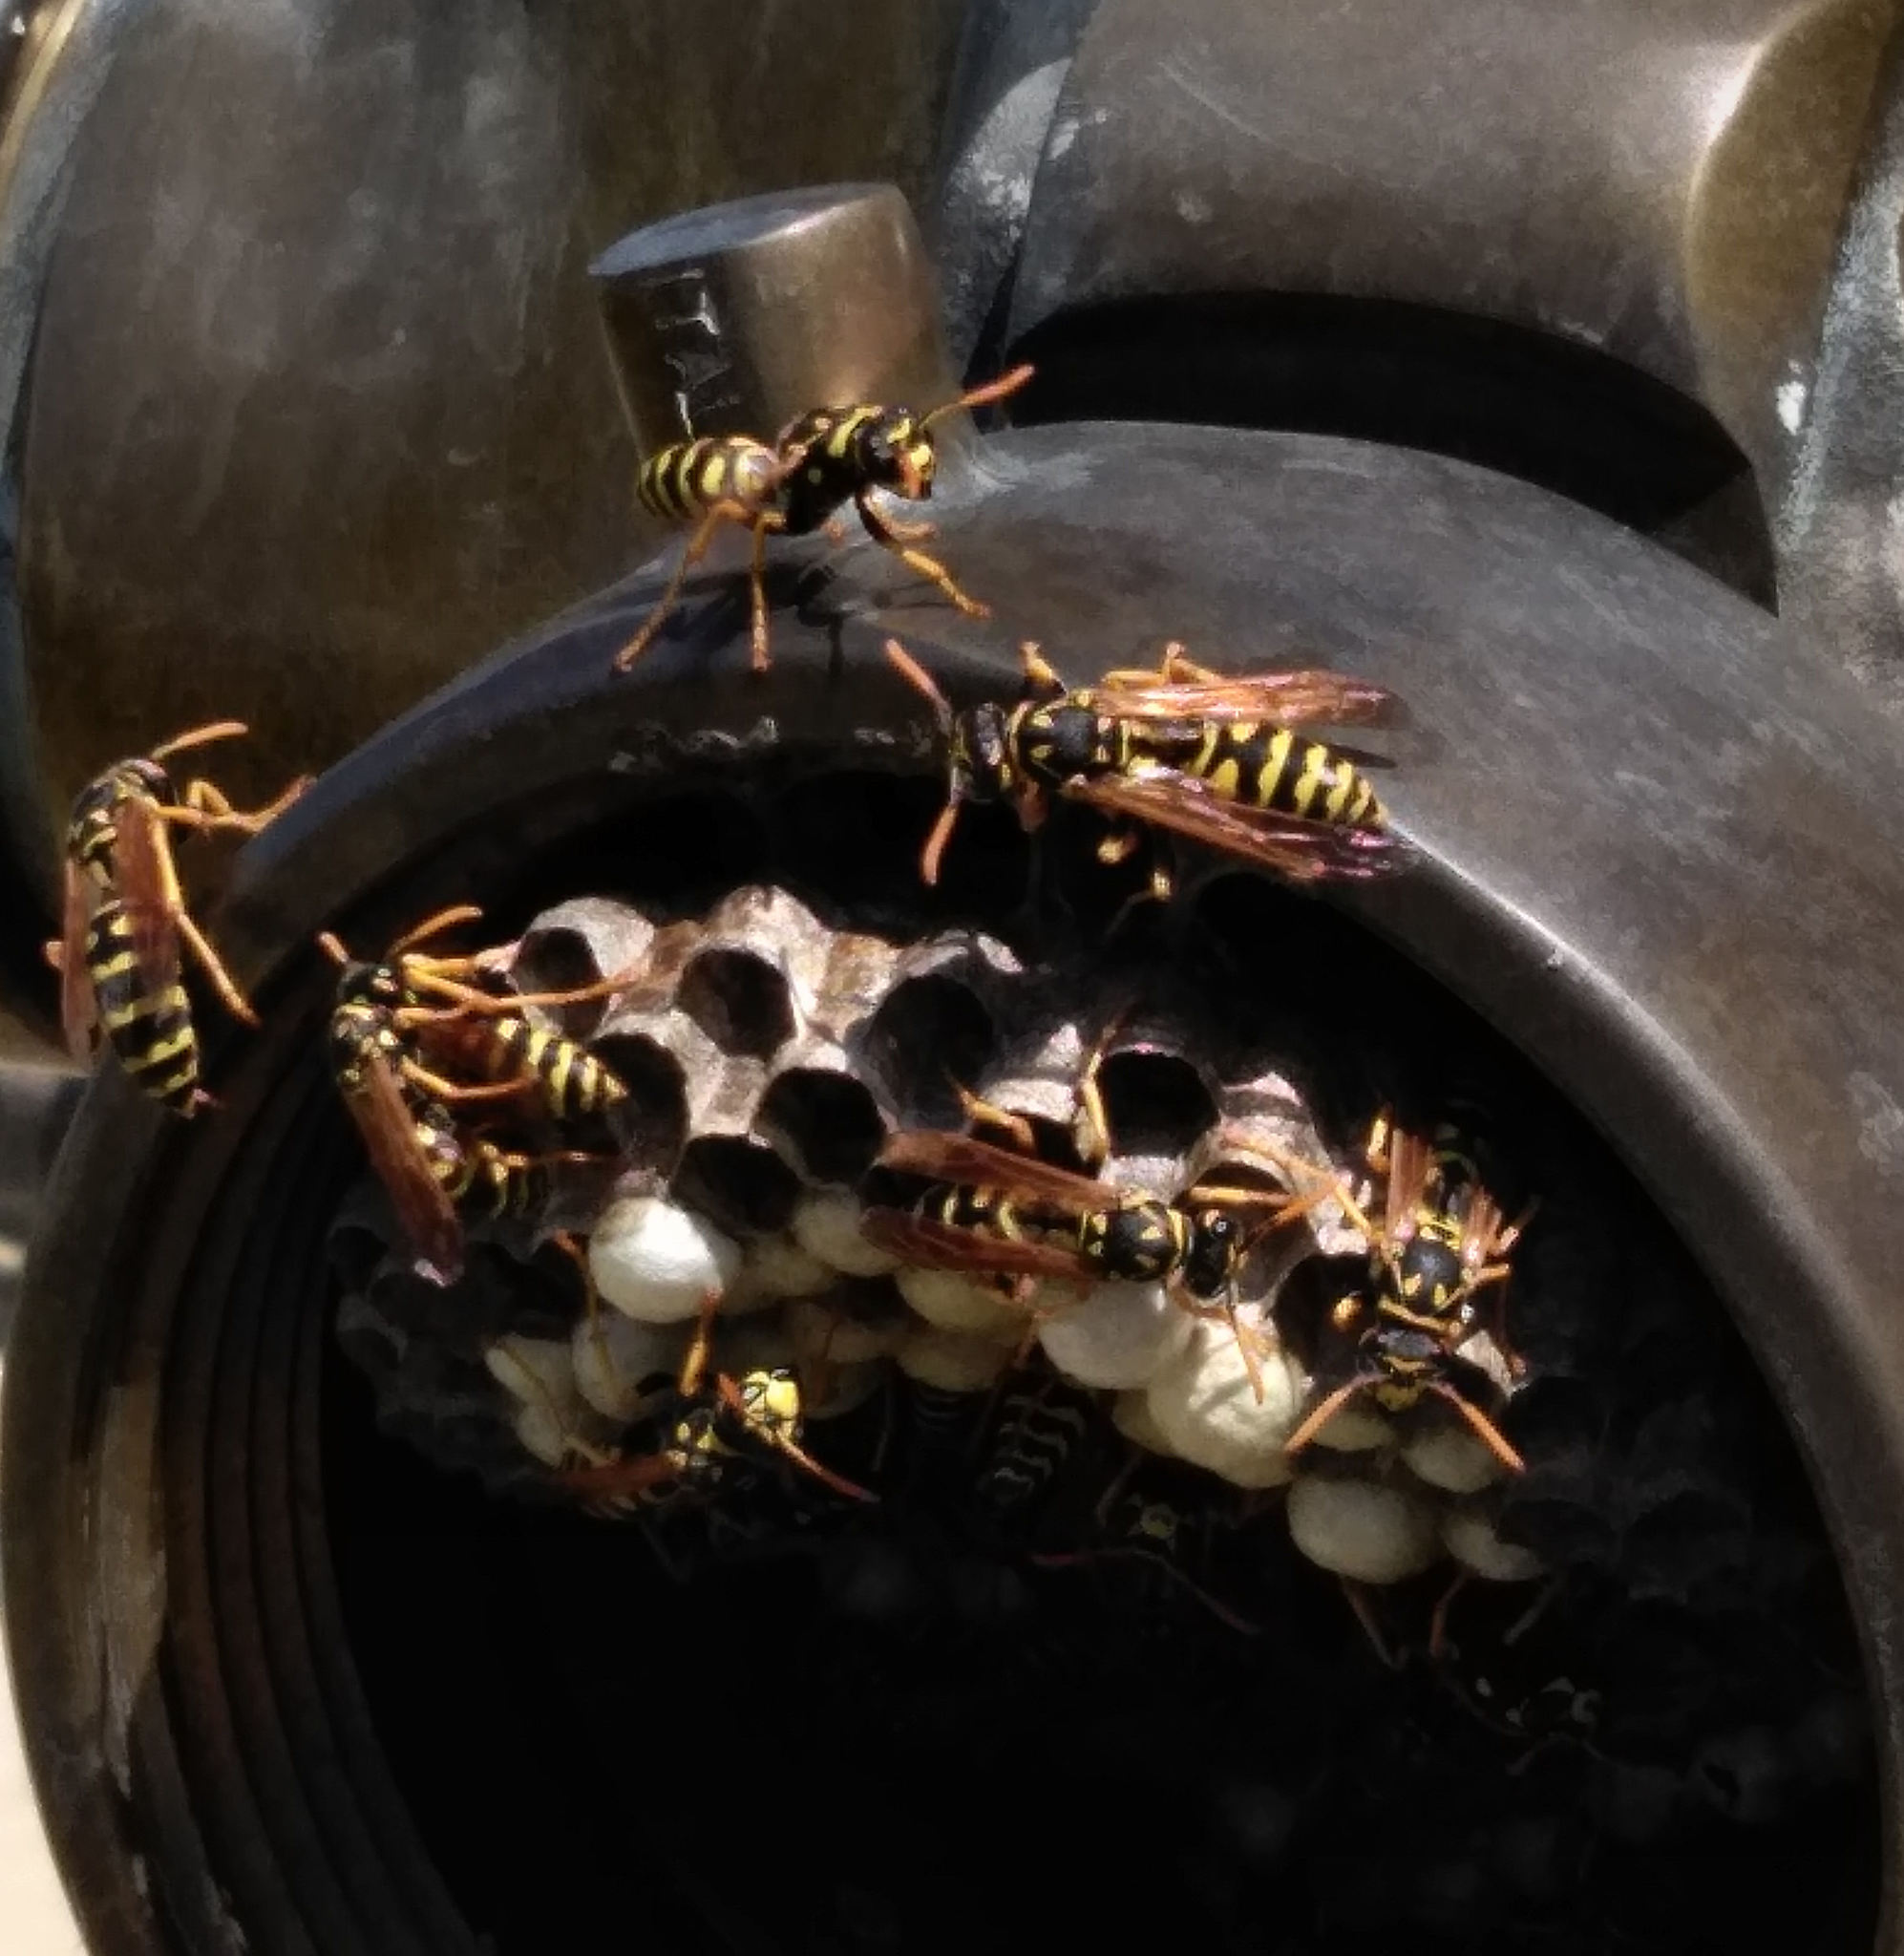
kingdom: Animalia
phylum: Arthropoda
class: Insecta
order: Hymenoptera
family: Eumenidae
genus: Polistes
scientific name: Polistes dominula
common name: Paper wasp
